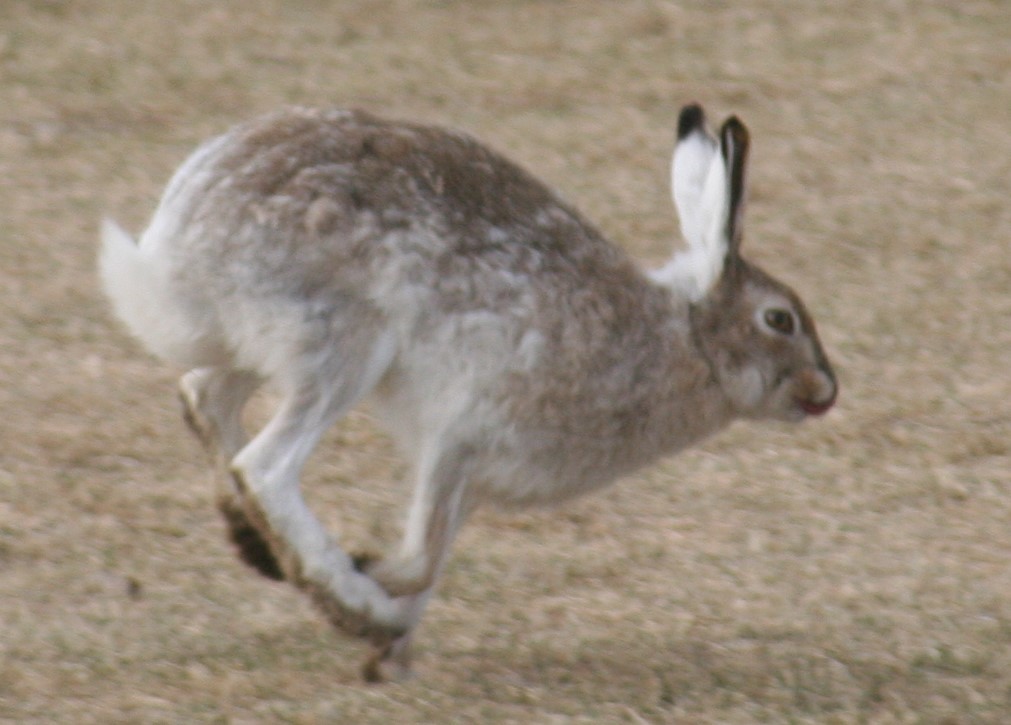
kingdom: Animalia
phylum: Chordata
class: Mammalia
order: Lagomorpha
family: Leporidae
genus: Lepus
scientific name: Lepus townsendii
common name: White-tailed jackrabbit
